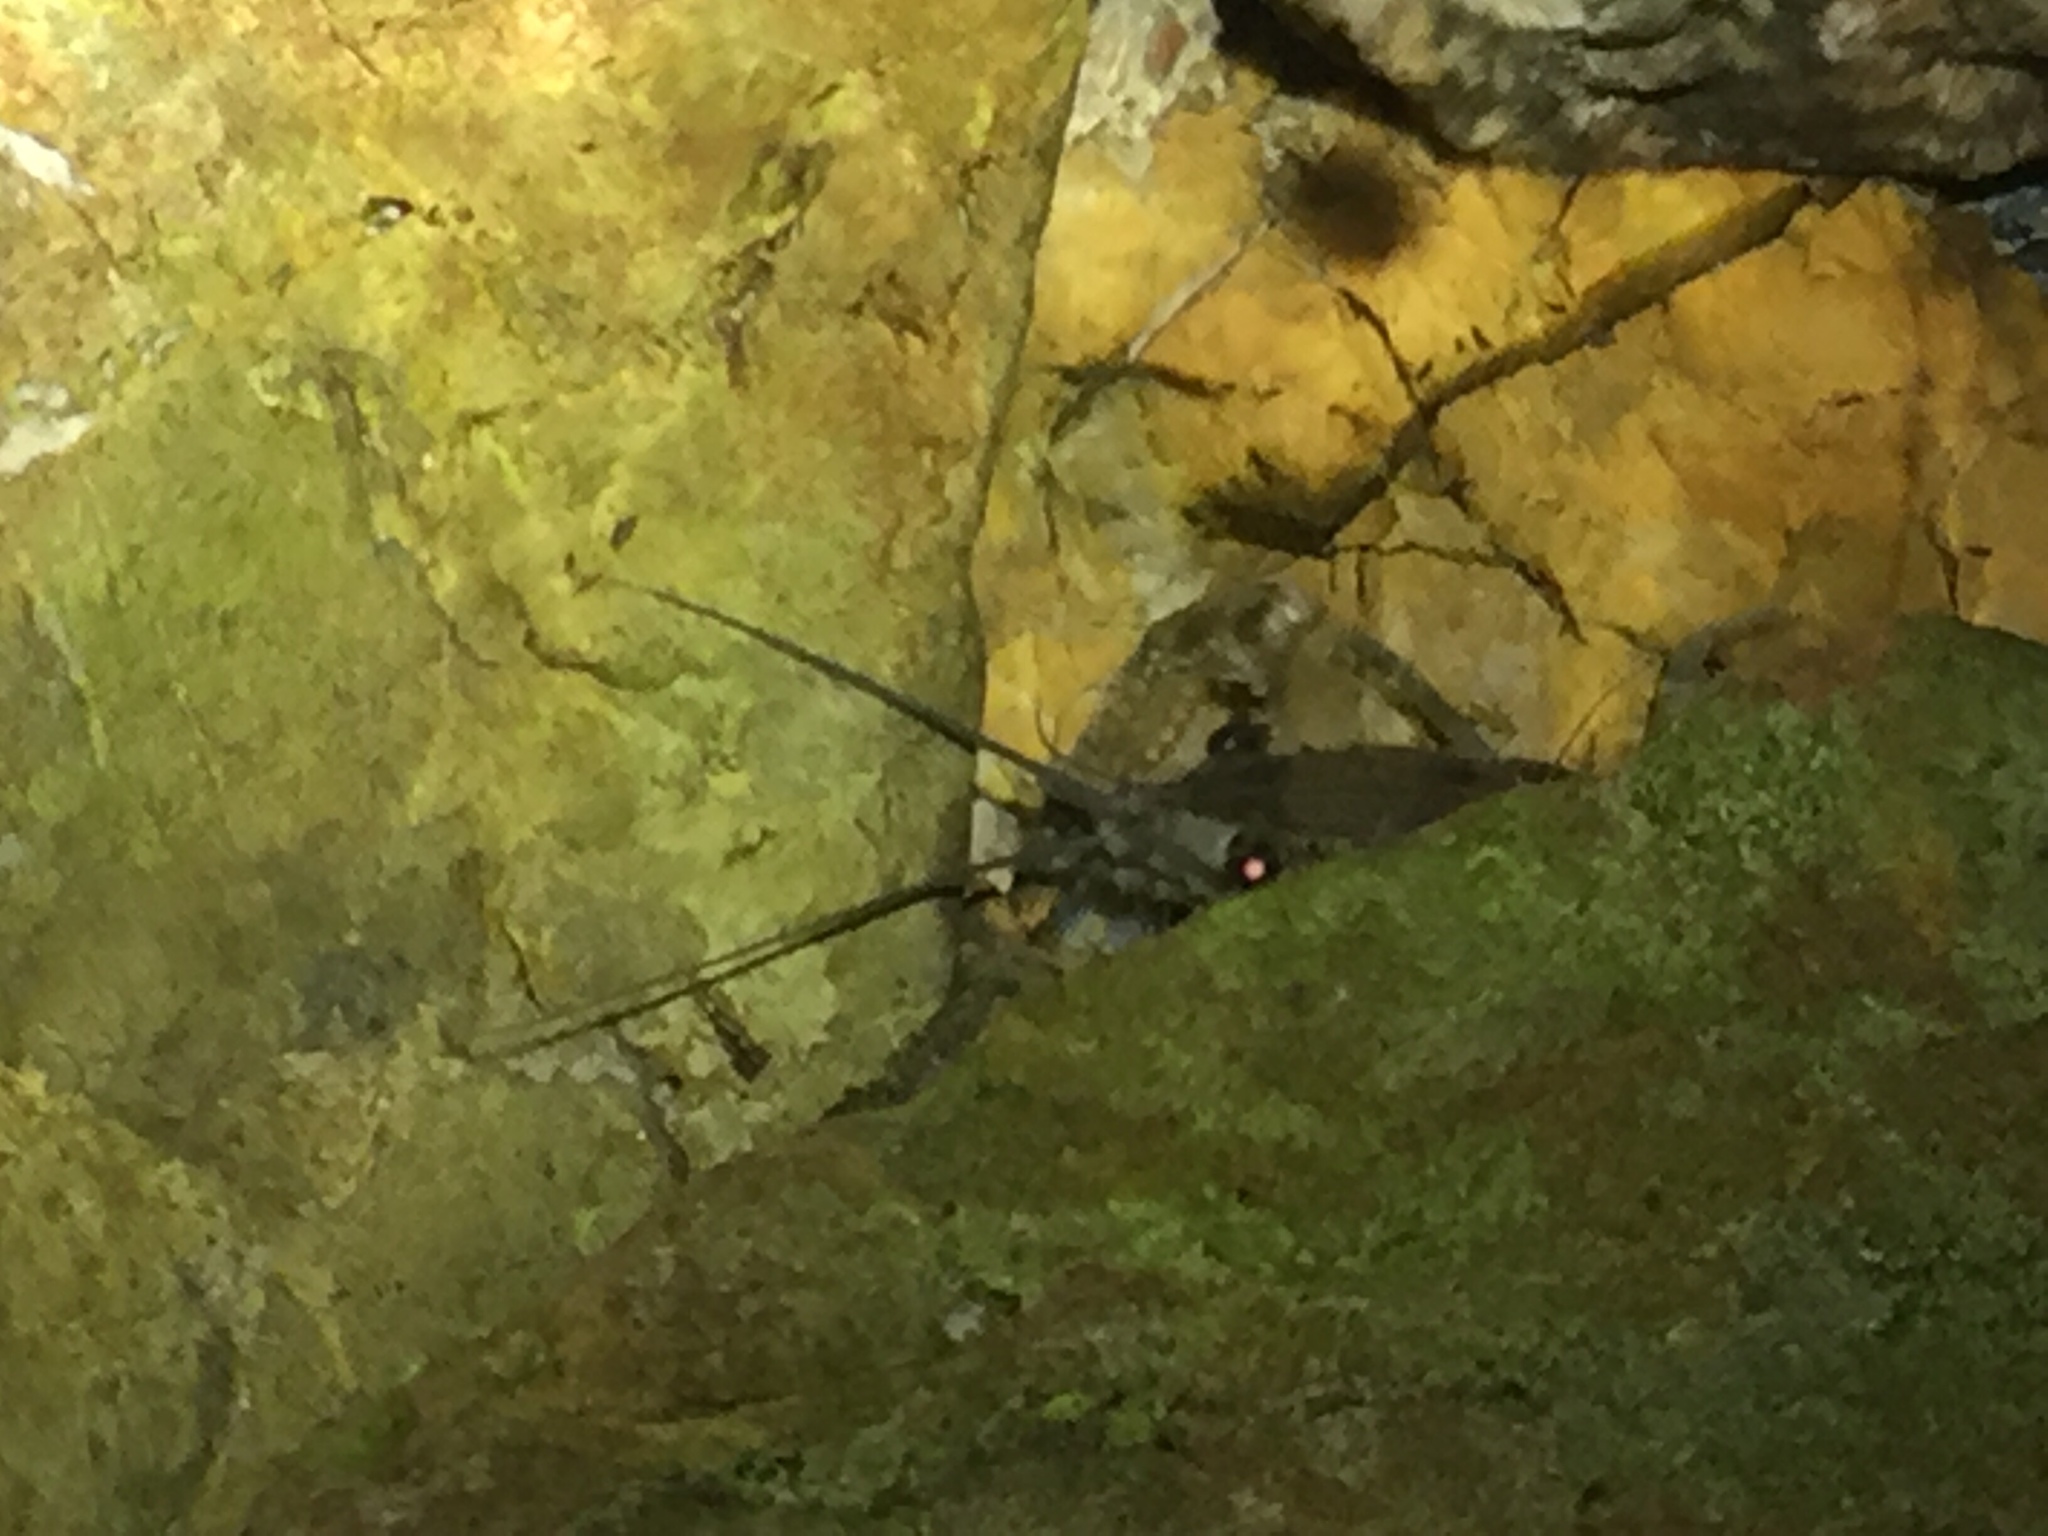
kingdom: Animalia
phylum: Arthropoda
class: Malacostraca
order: Decapoda
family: Parastacidae
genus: Paranephrops
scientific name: Paranephrops planifrons
